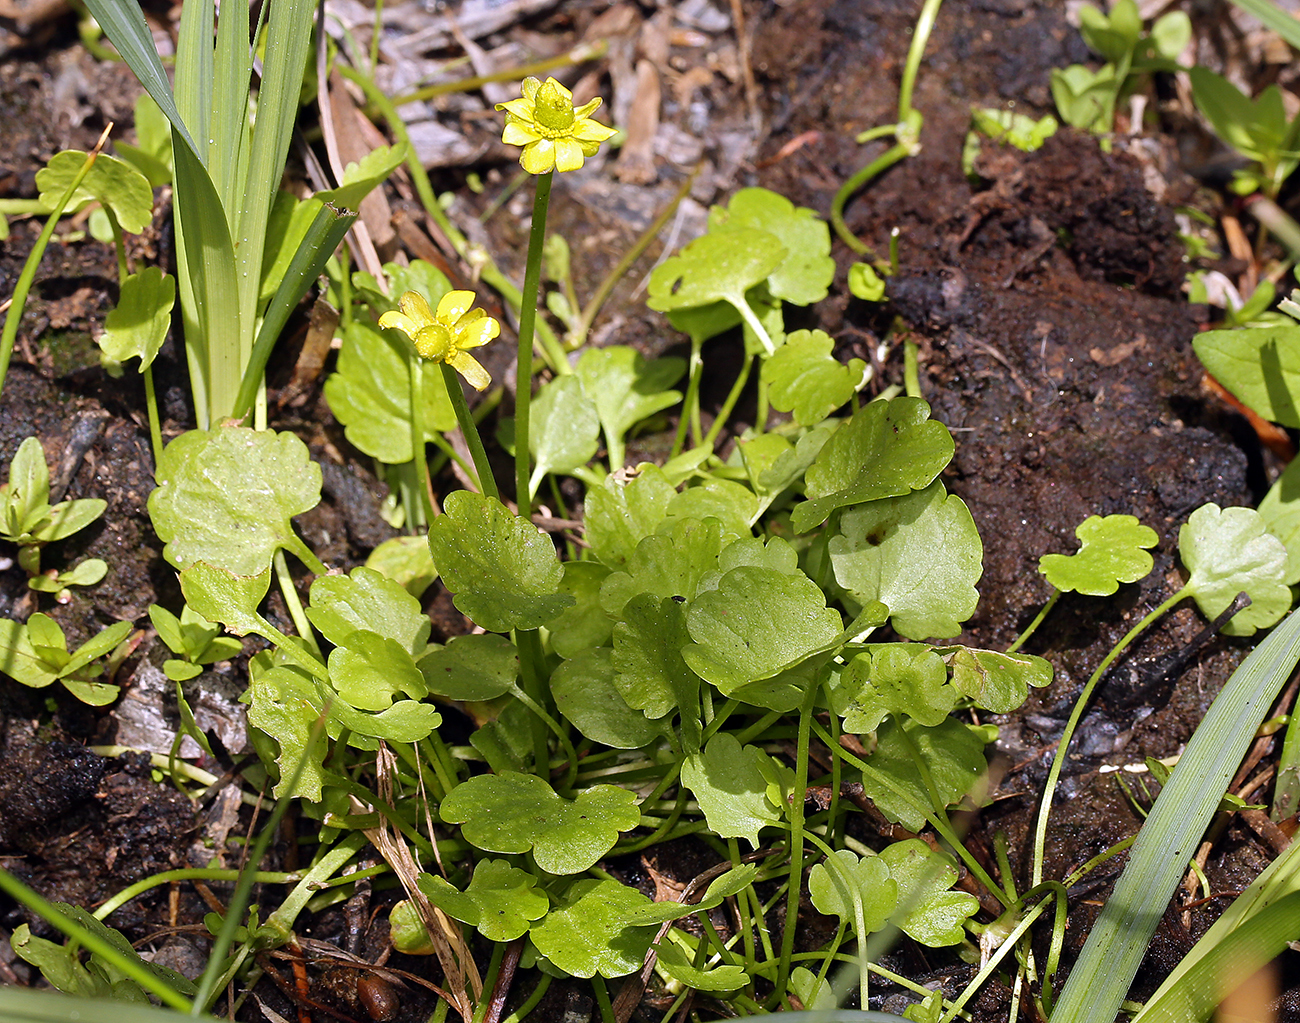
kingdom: Plantae
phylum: Tracheophyta
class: Magnoliopsida
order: Ranunculales
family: Ranunculaceae
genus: Halerpestes
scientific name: Halerpestes cymbalaria
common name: Seaside crowfoot
